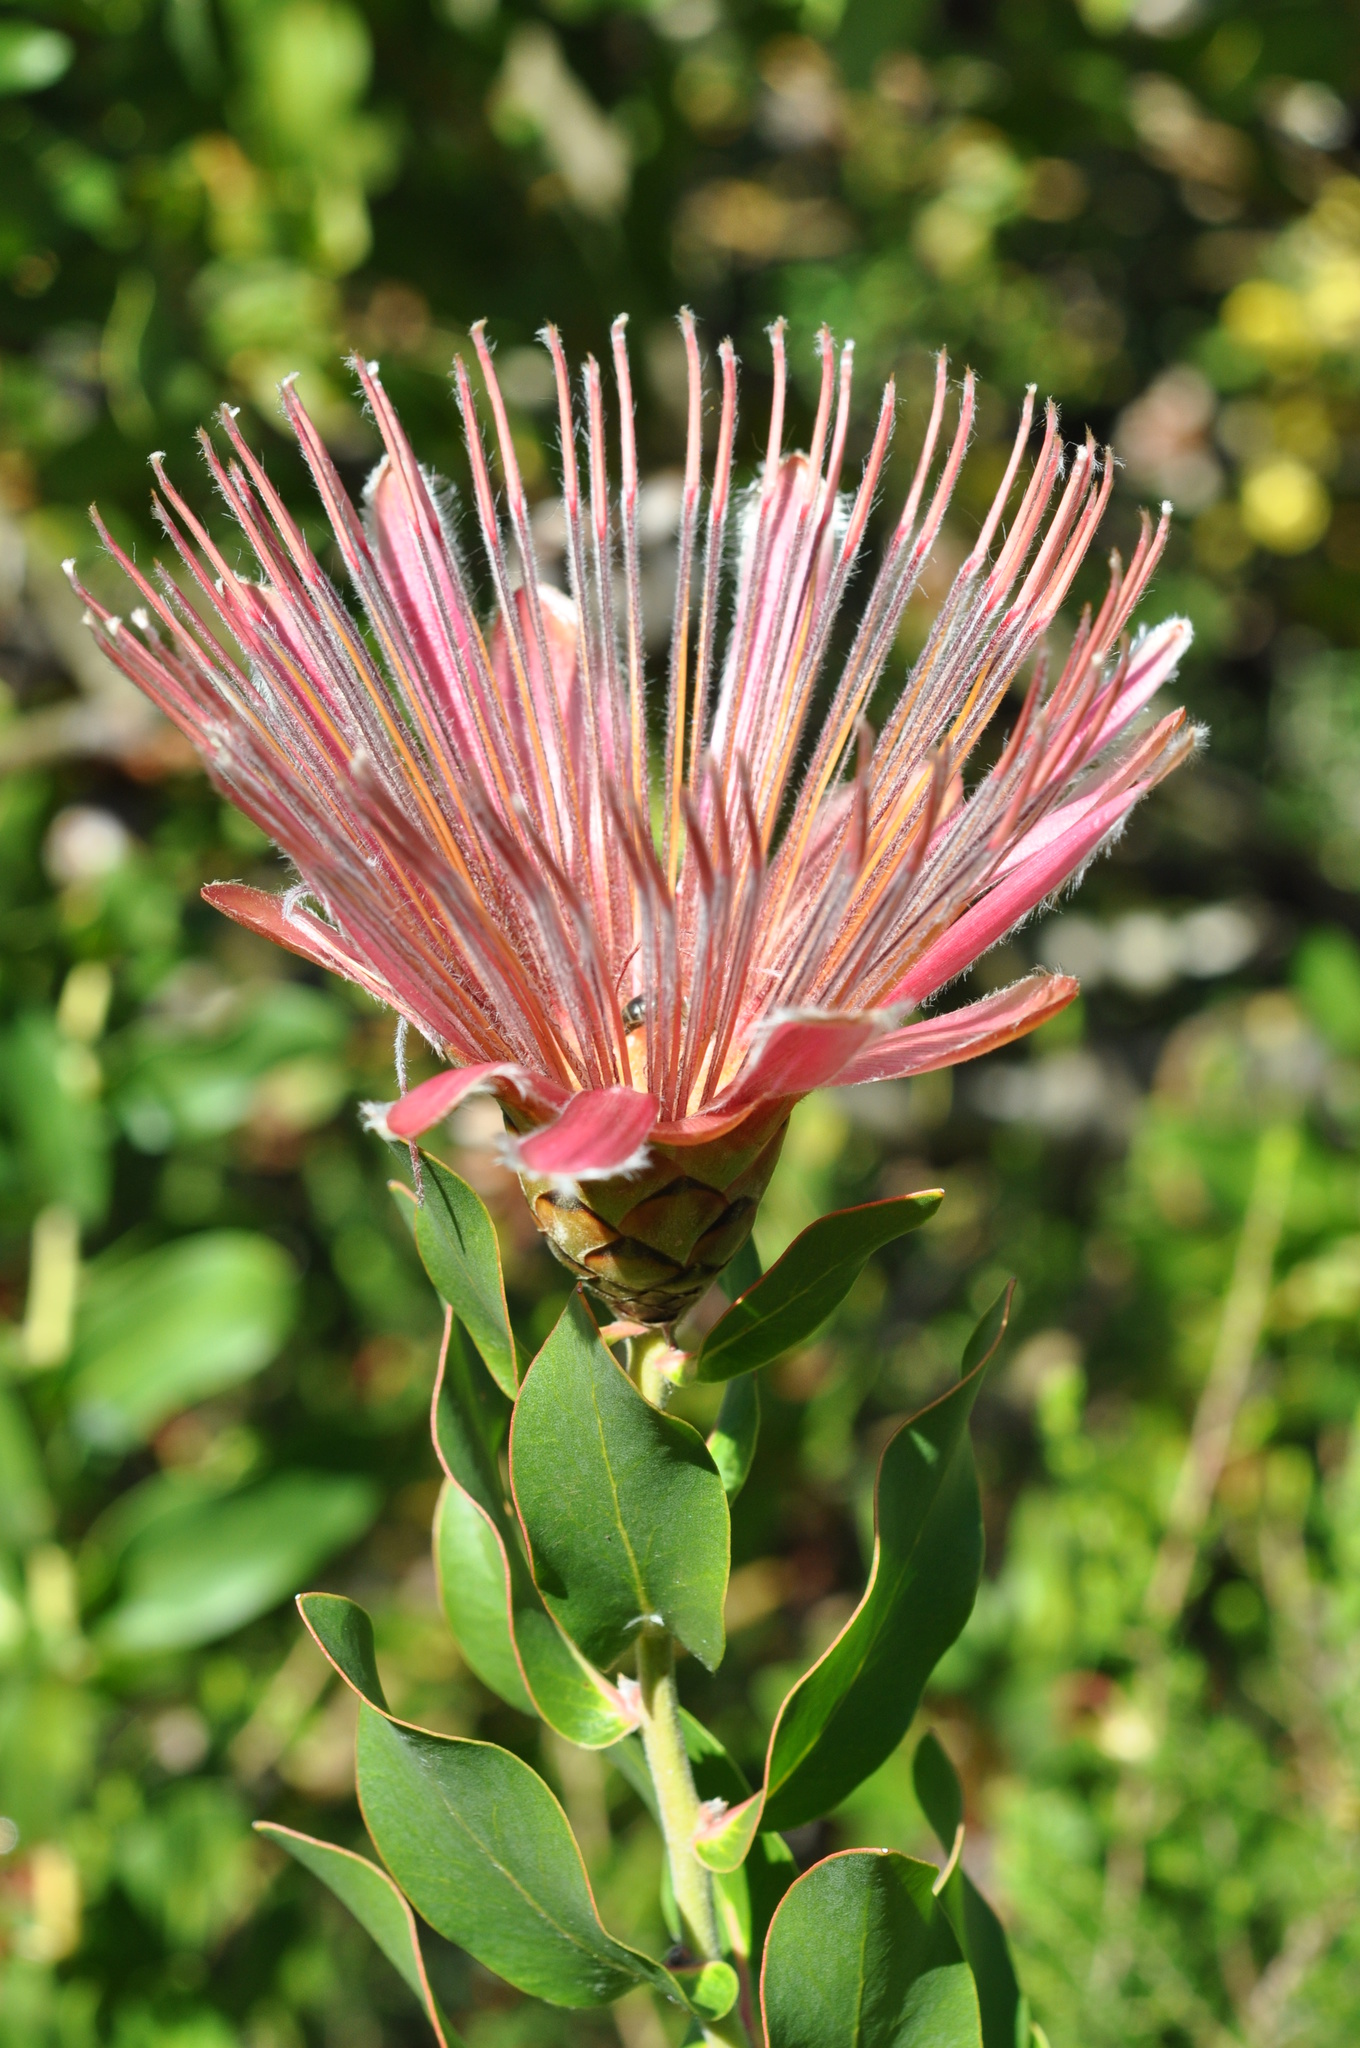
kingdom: Plantae
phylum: Tracheophyta
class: Magnoliopsida
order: Proteales
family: Proteaceae
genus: Protea
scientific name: Protea aurea
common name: Shuttlecock sugarbush
